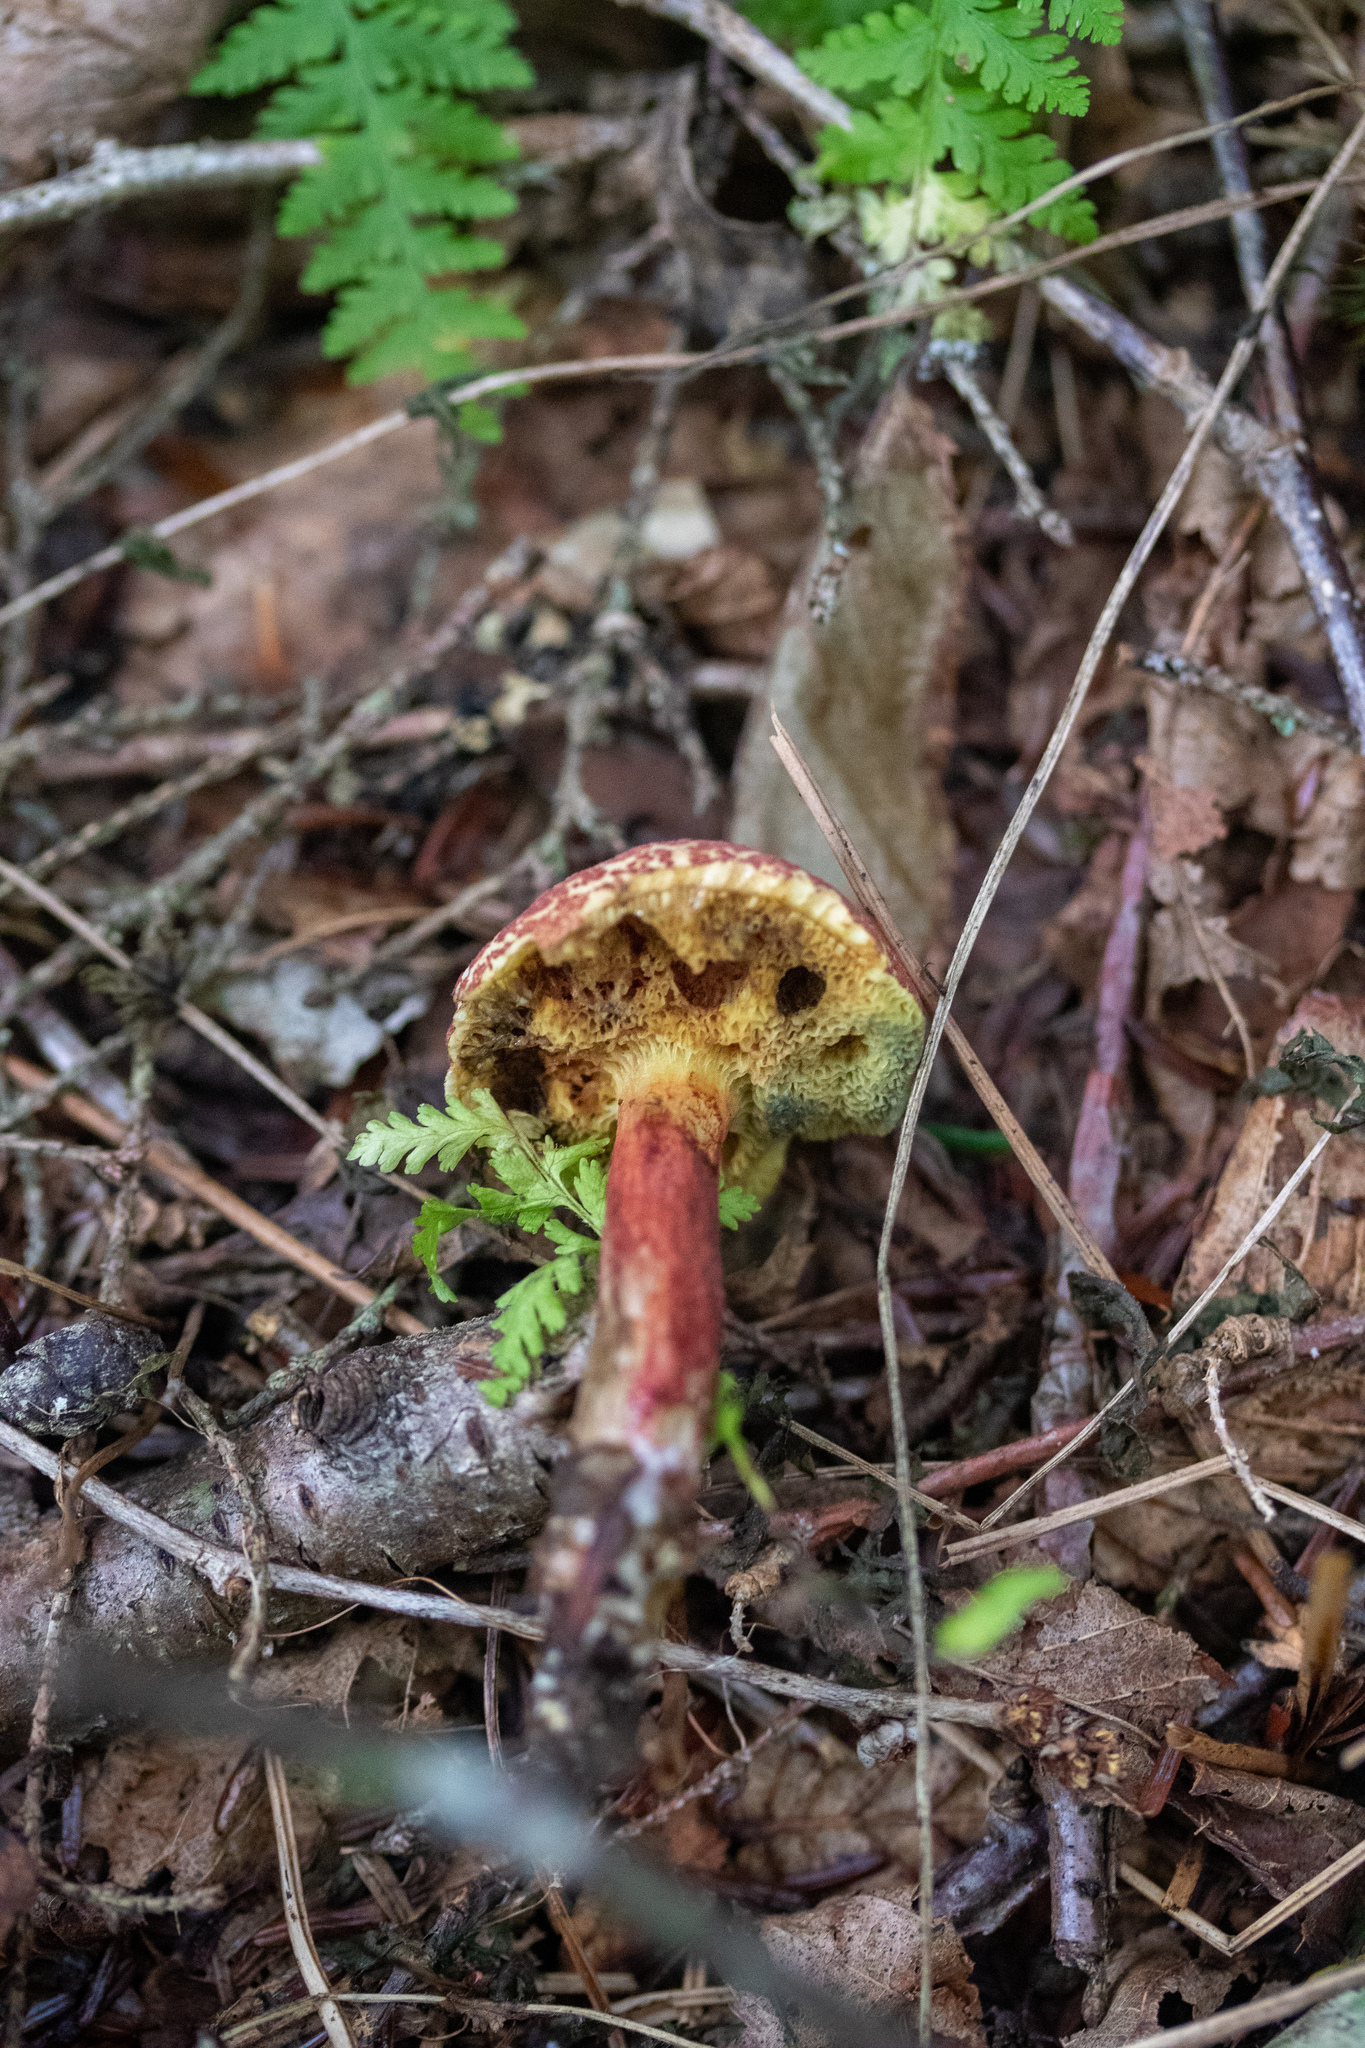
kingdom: Fungi
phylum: Basidiomycota
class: Agaricomycetes
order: Boletales
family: Boletaceae
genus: Xerocomellus
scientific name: Xerocomellus chrysenteron
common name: Red-cracking bolete
